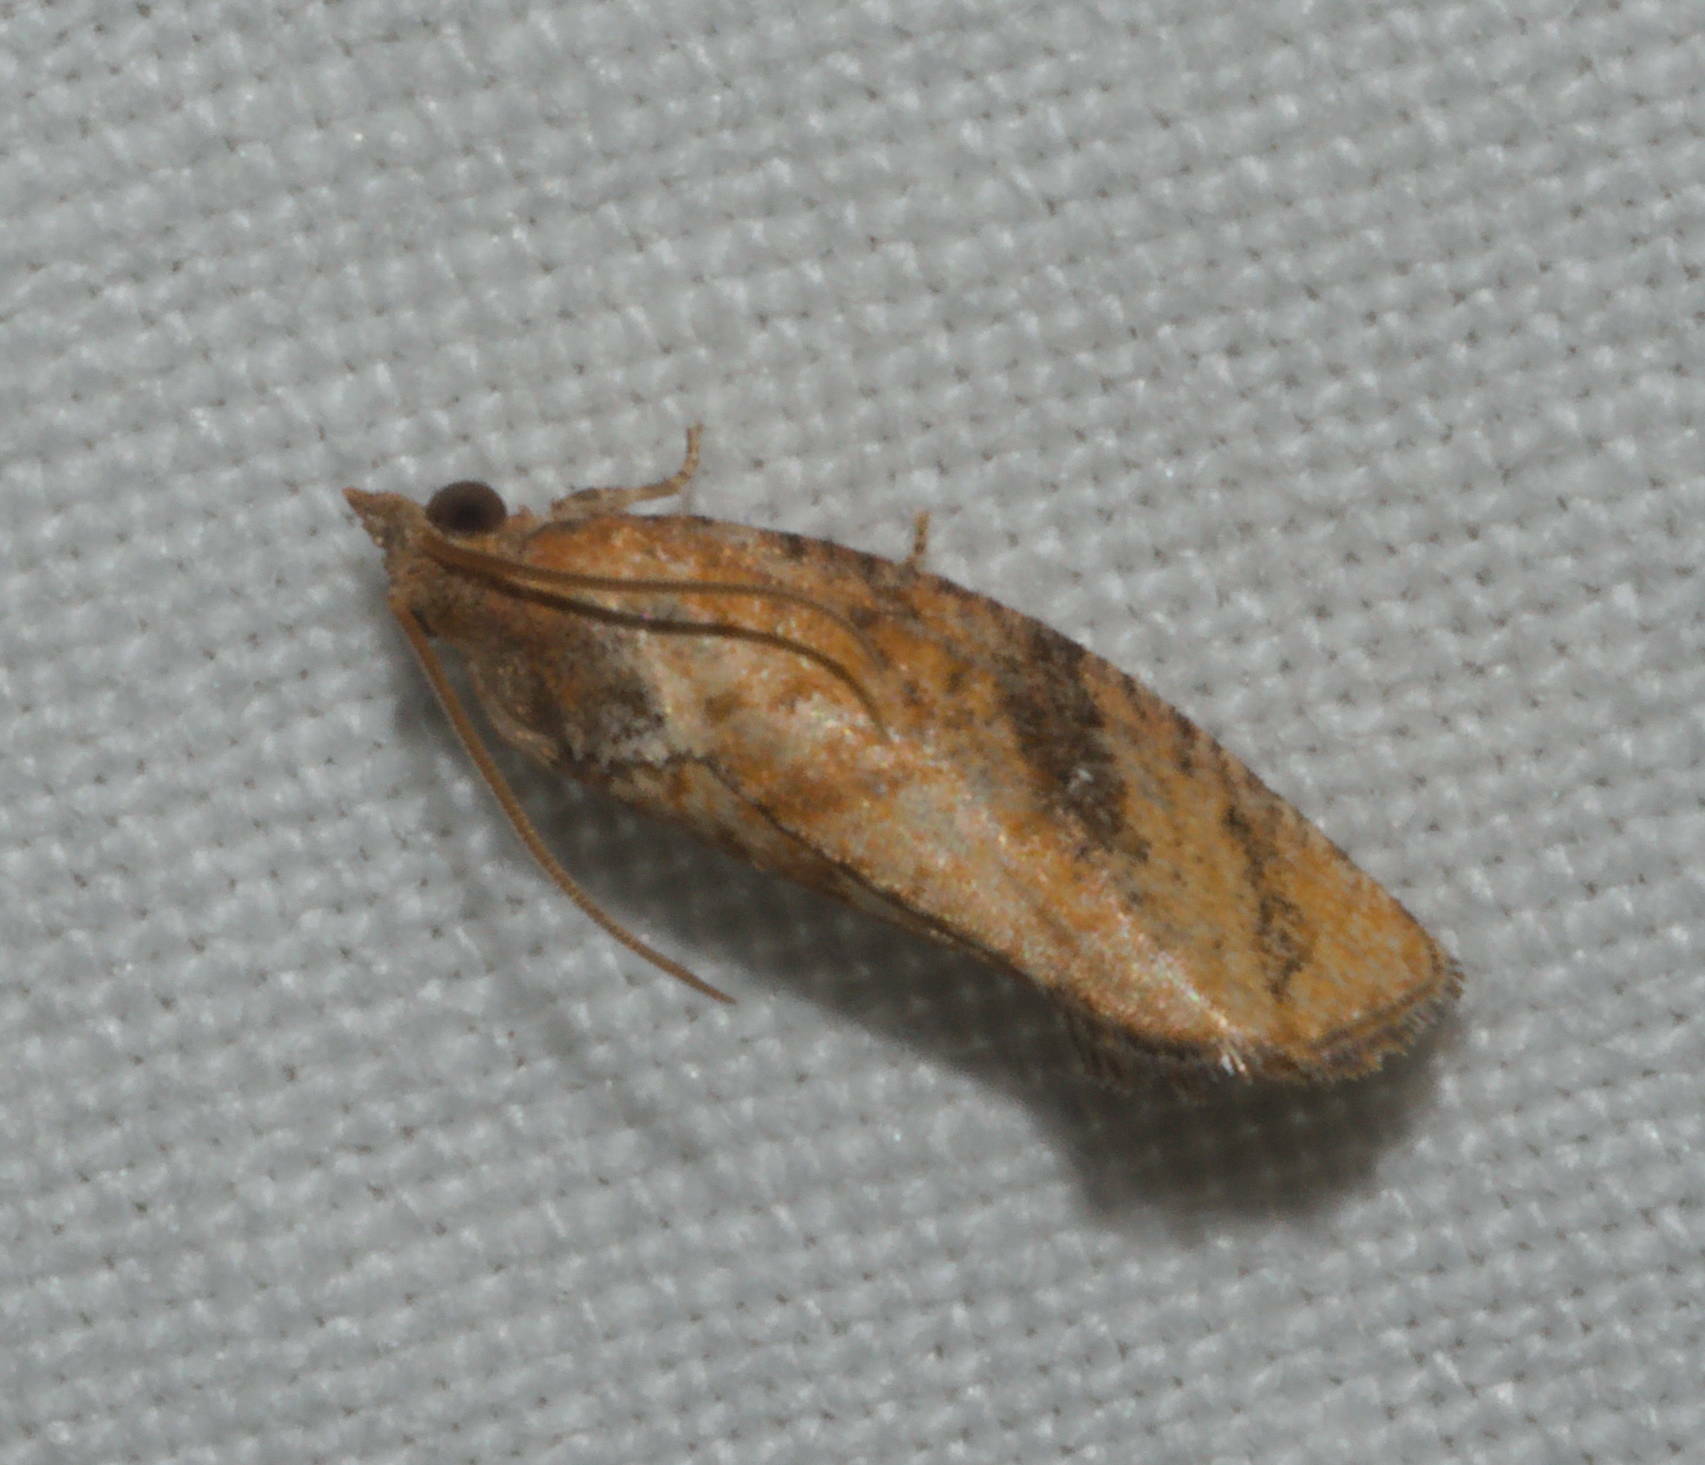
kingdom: Animalia
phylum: Arthropoda
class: Insecta
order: Lepidoptera
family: Tortricidae
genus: Cryptophlebia
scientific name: Cryptophlebia illepida
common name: Moth
